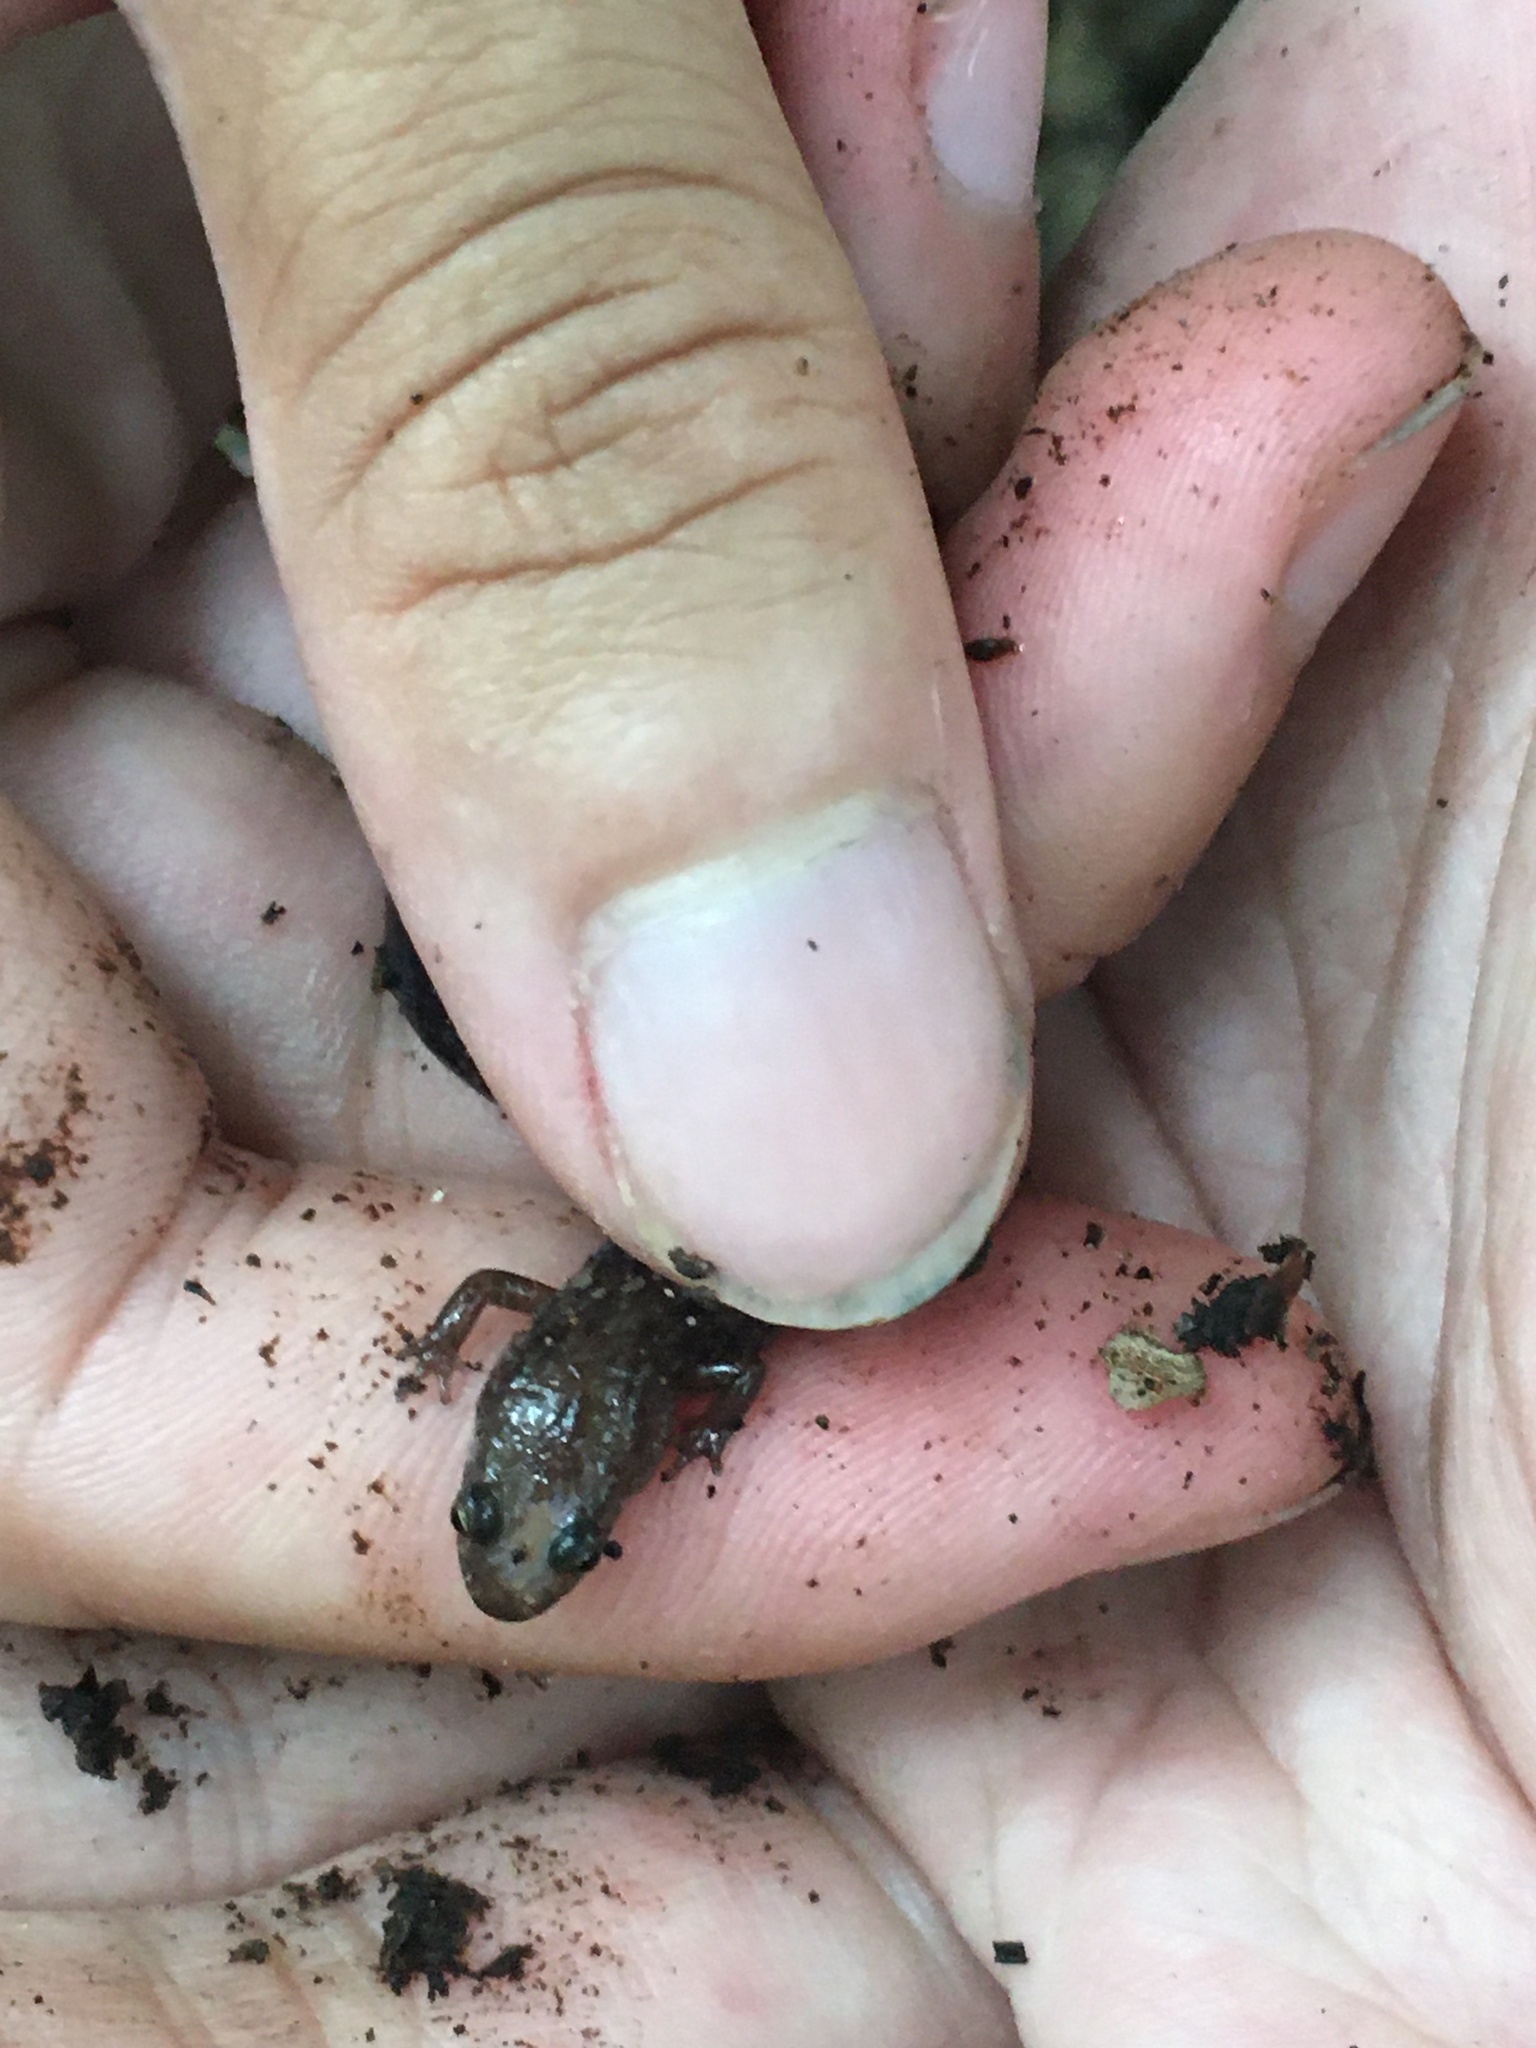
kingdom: Animalia
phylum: Chordata
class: Amphibia
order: Caudata
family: Plethodontidae
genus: Desmognathus
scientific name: Desmognathus orestes
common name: Blue ridge dusky salamander
